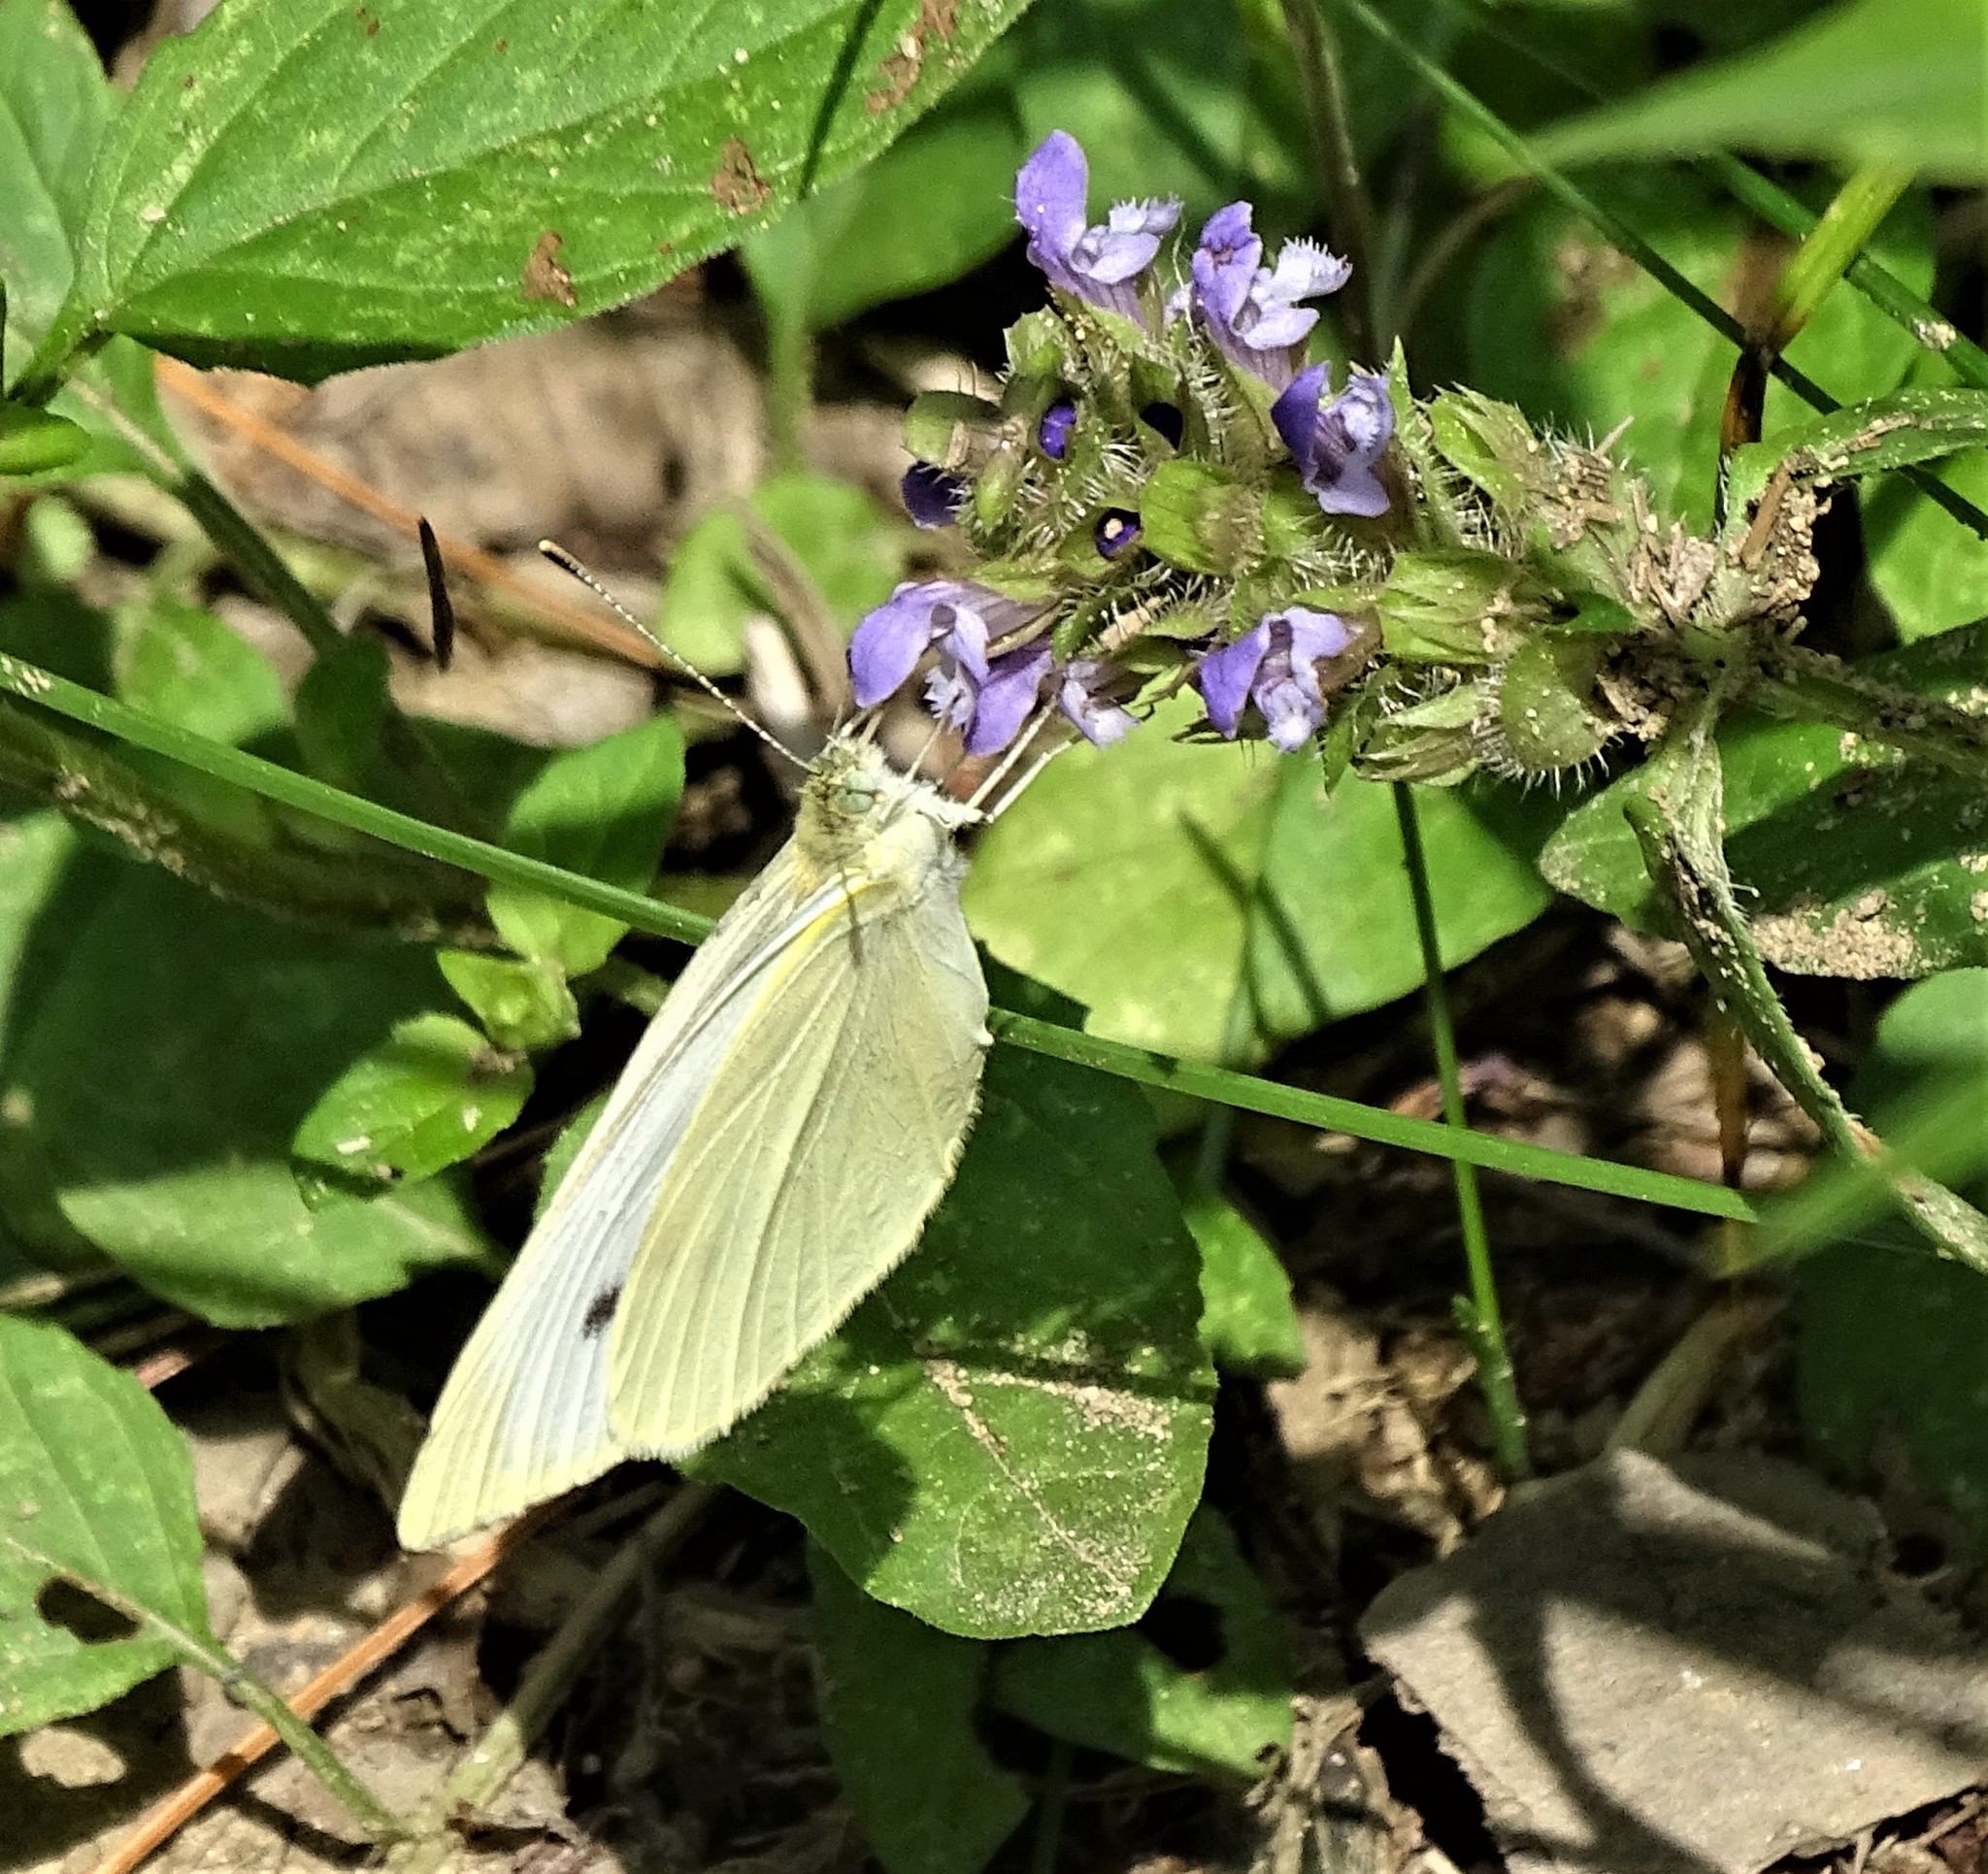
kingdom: Animalia
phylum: Arthropoda
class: Insecta
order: Lepidoptera
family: Pieridae
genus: Pieris
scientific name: Pieris rapae
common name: Small white
